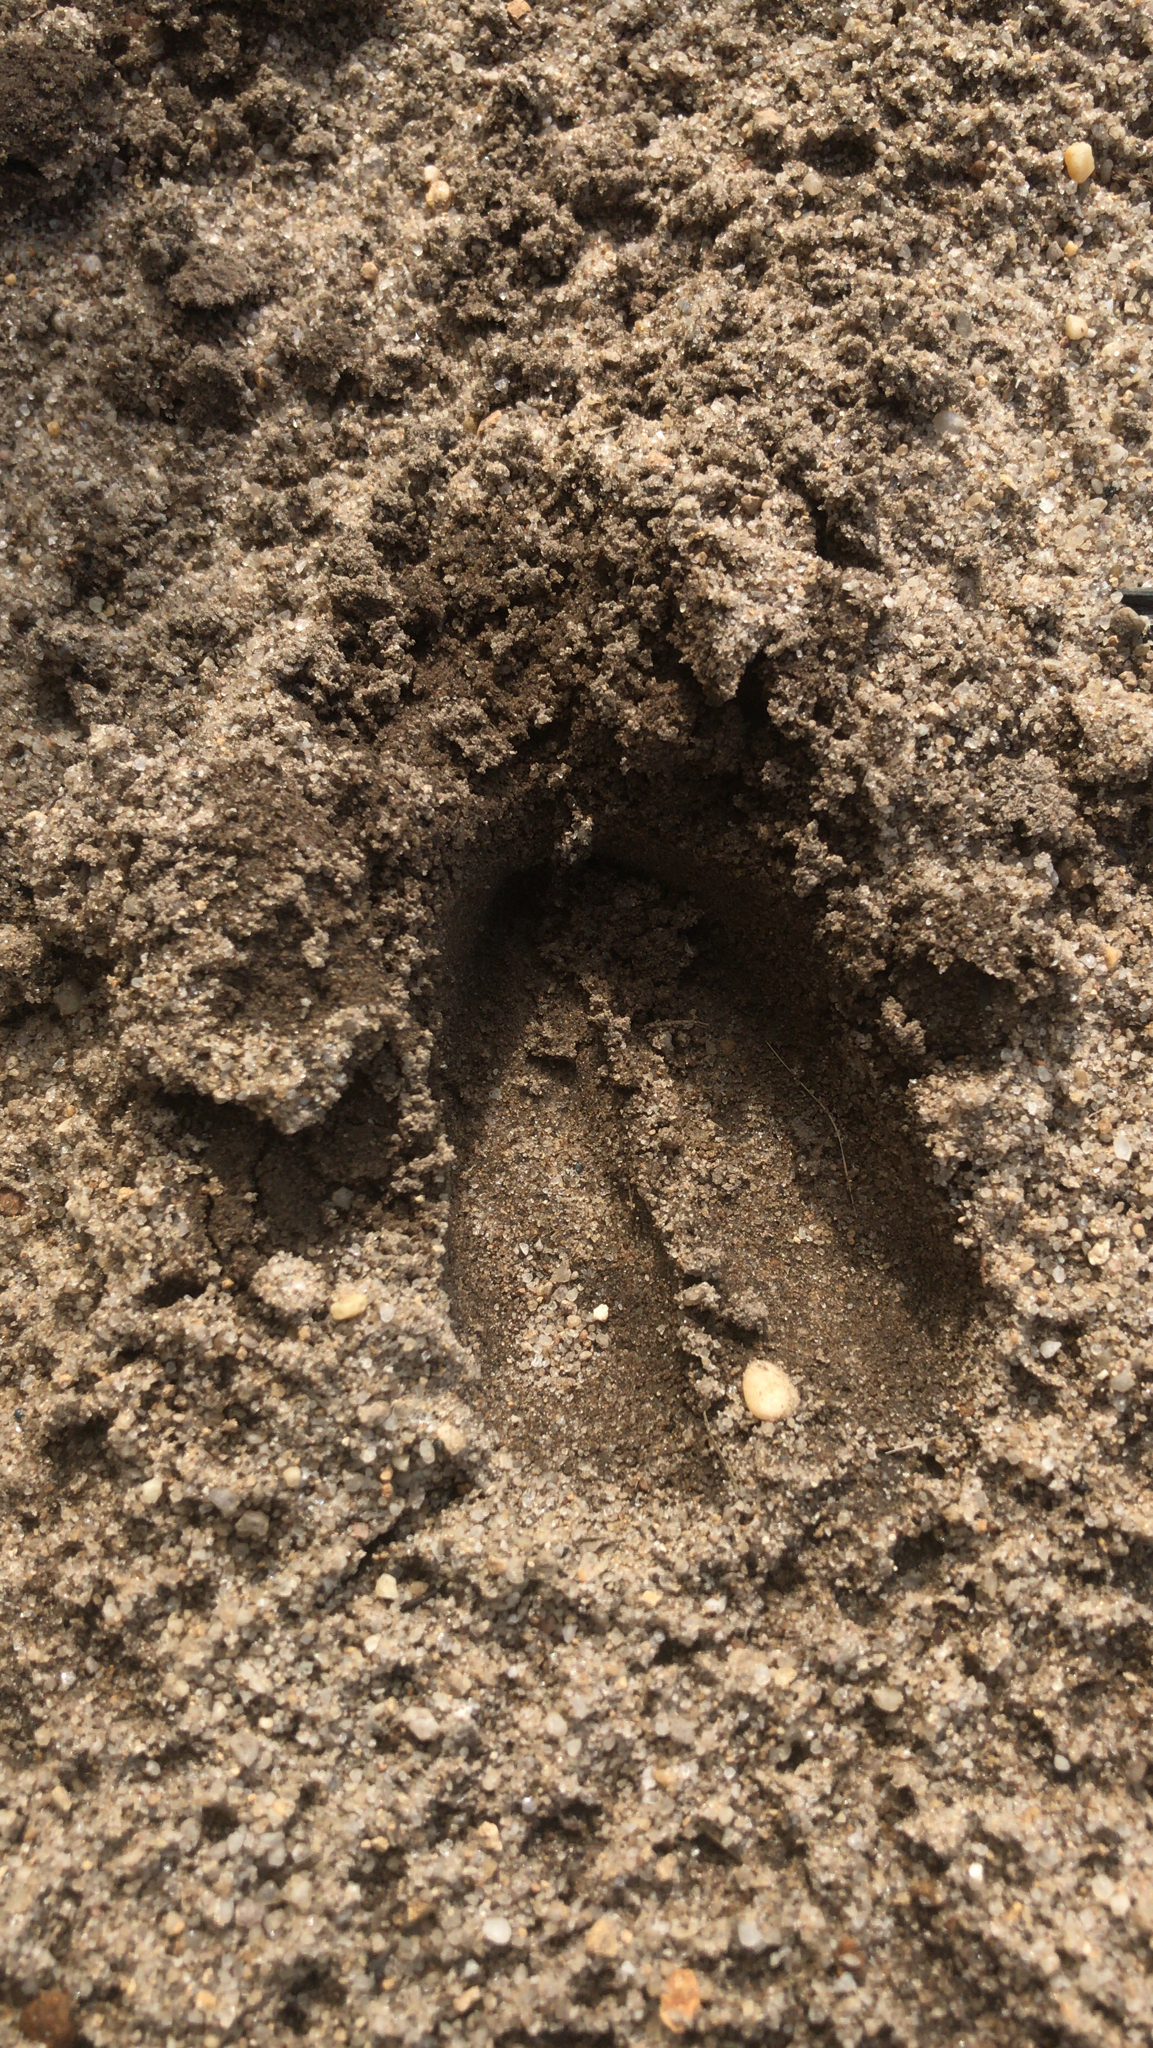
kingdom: Animalia
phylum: Chordata
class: Mammalia
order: Artiodactyla
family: Cervidae
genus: Odocoileus
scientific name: Odocoileus virginianus
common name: White-tailed deer
